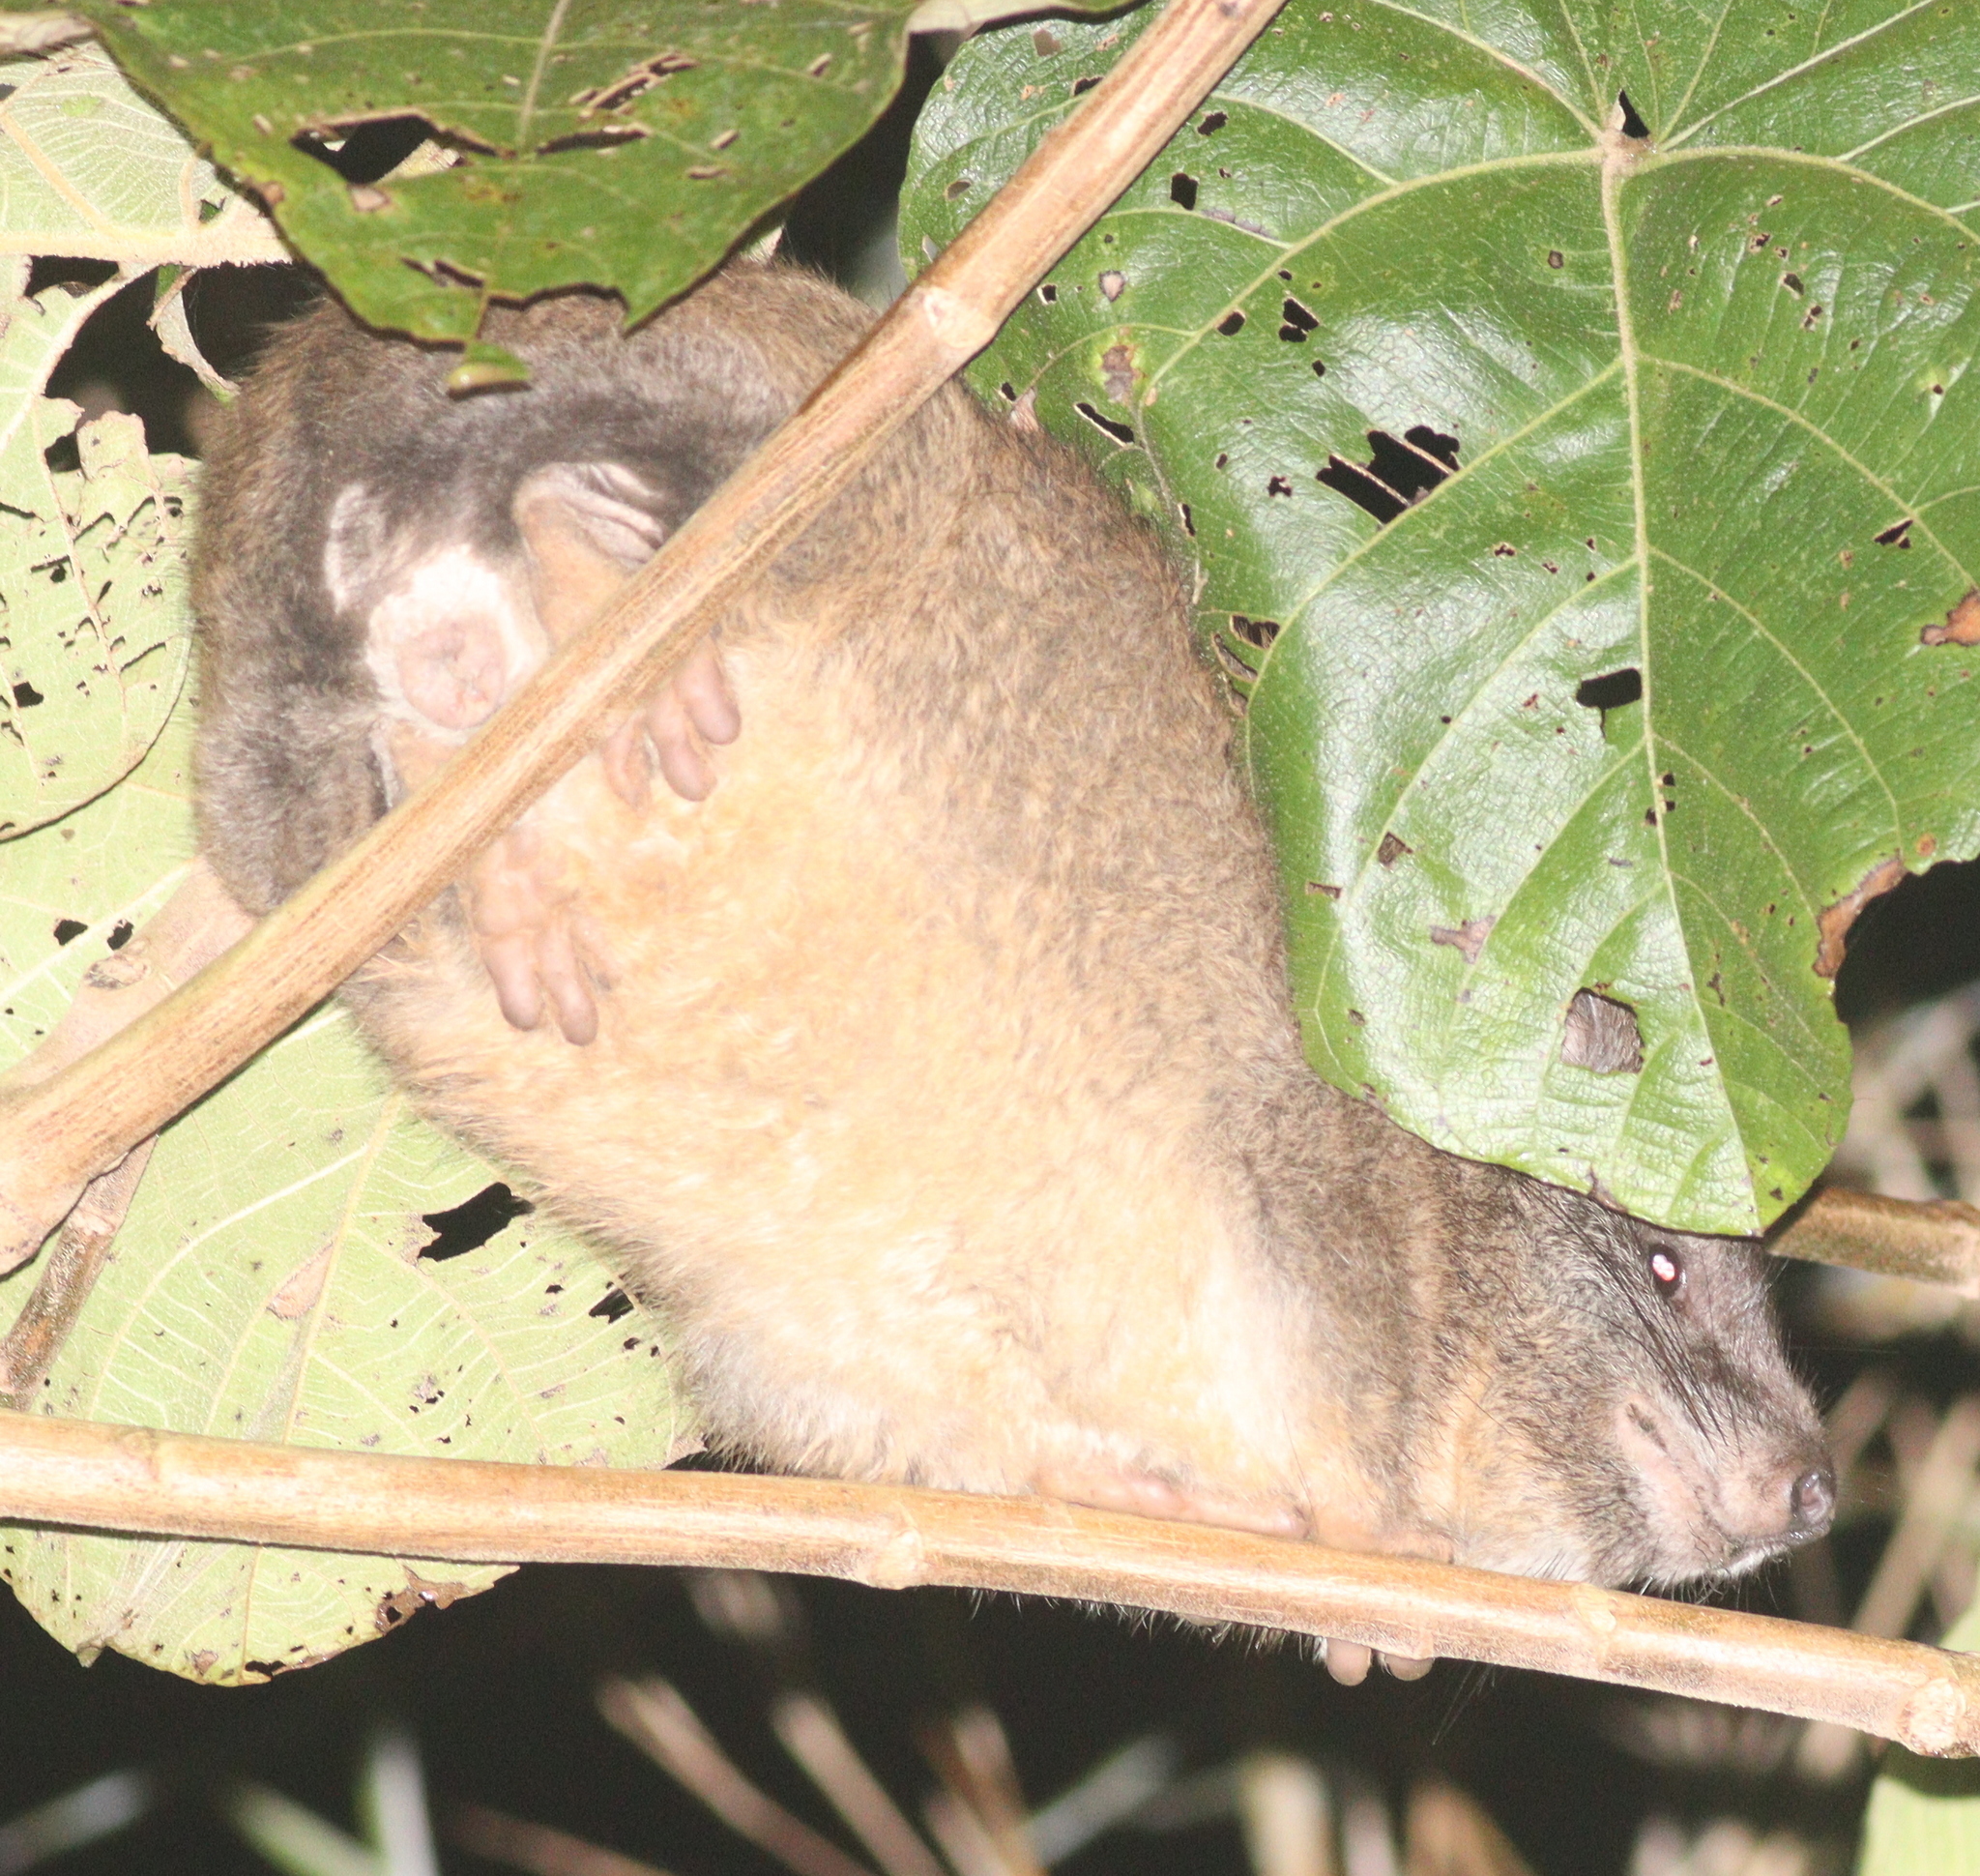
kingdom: Animalia
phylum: Chordata
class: Mammalia
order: Hyracoidea
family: Procaviidae
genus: Dendrohyrax
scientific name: Dendrohyrax arboreus
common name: Southern tree hyrax
